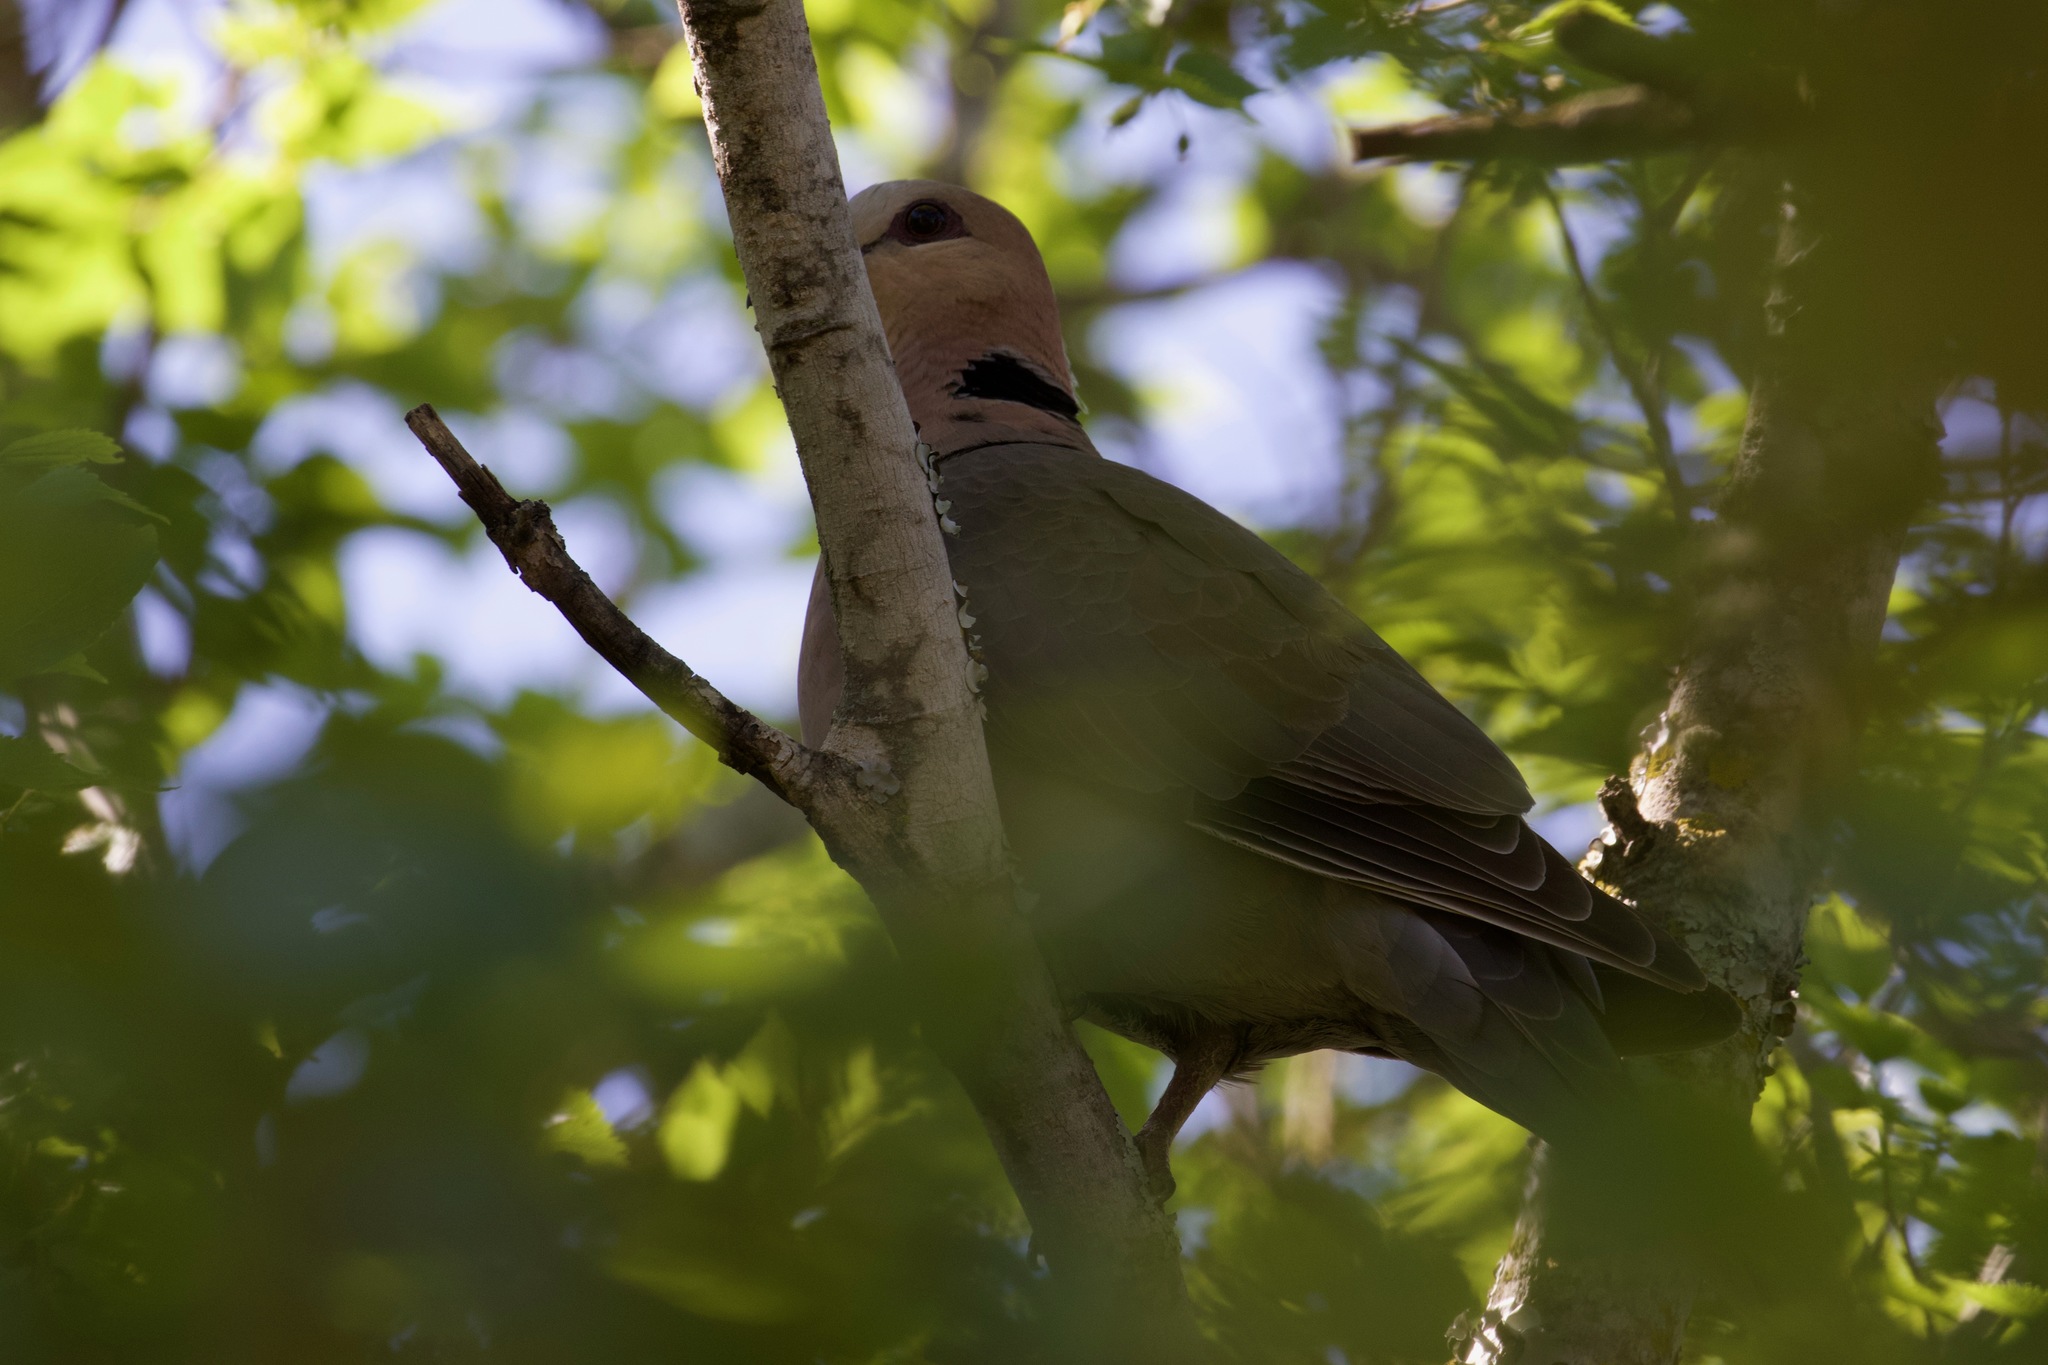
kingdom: Animalia
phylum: Chordata
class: Aves
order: Columbiformes
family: Columbidae
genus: Streptopelia
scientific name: Streptopelia semitorquata
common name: Red-eyed dove
